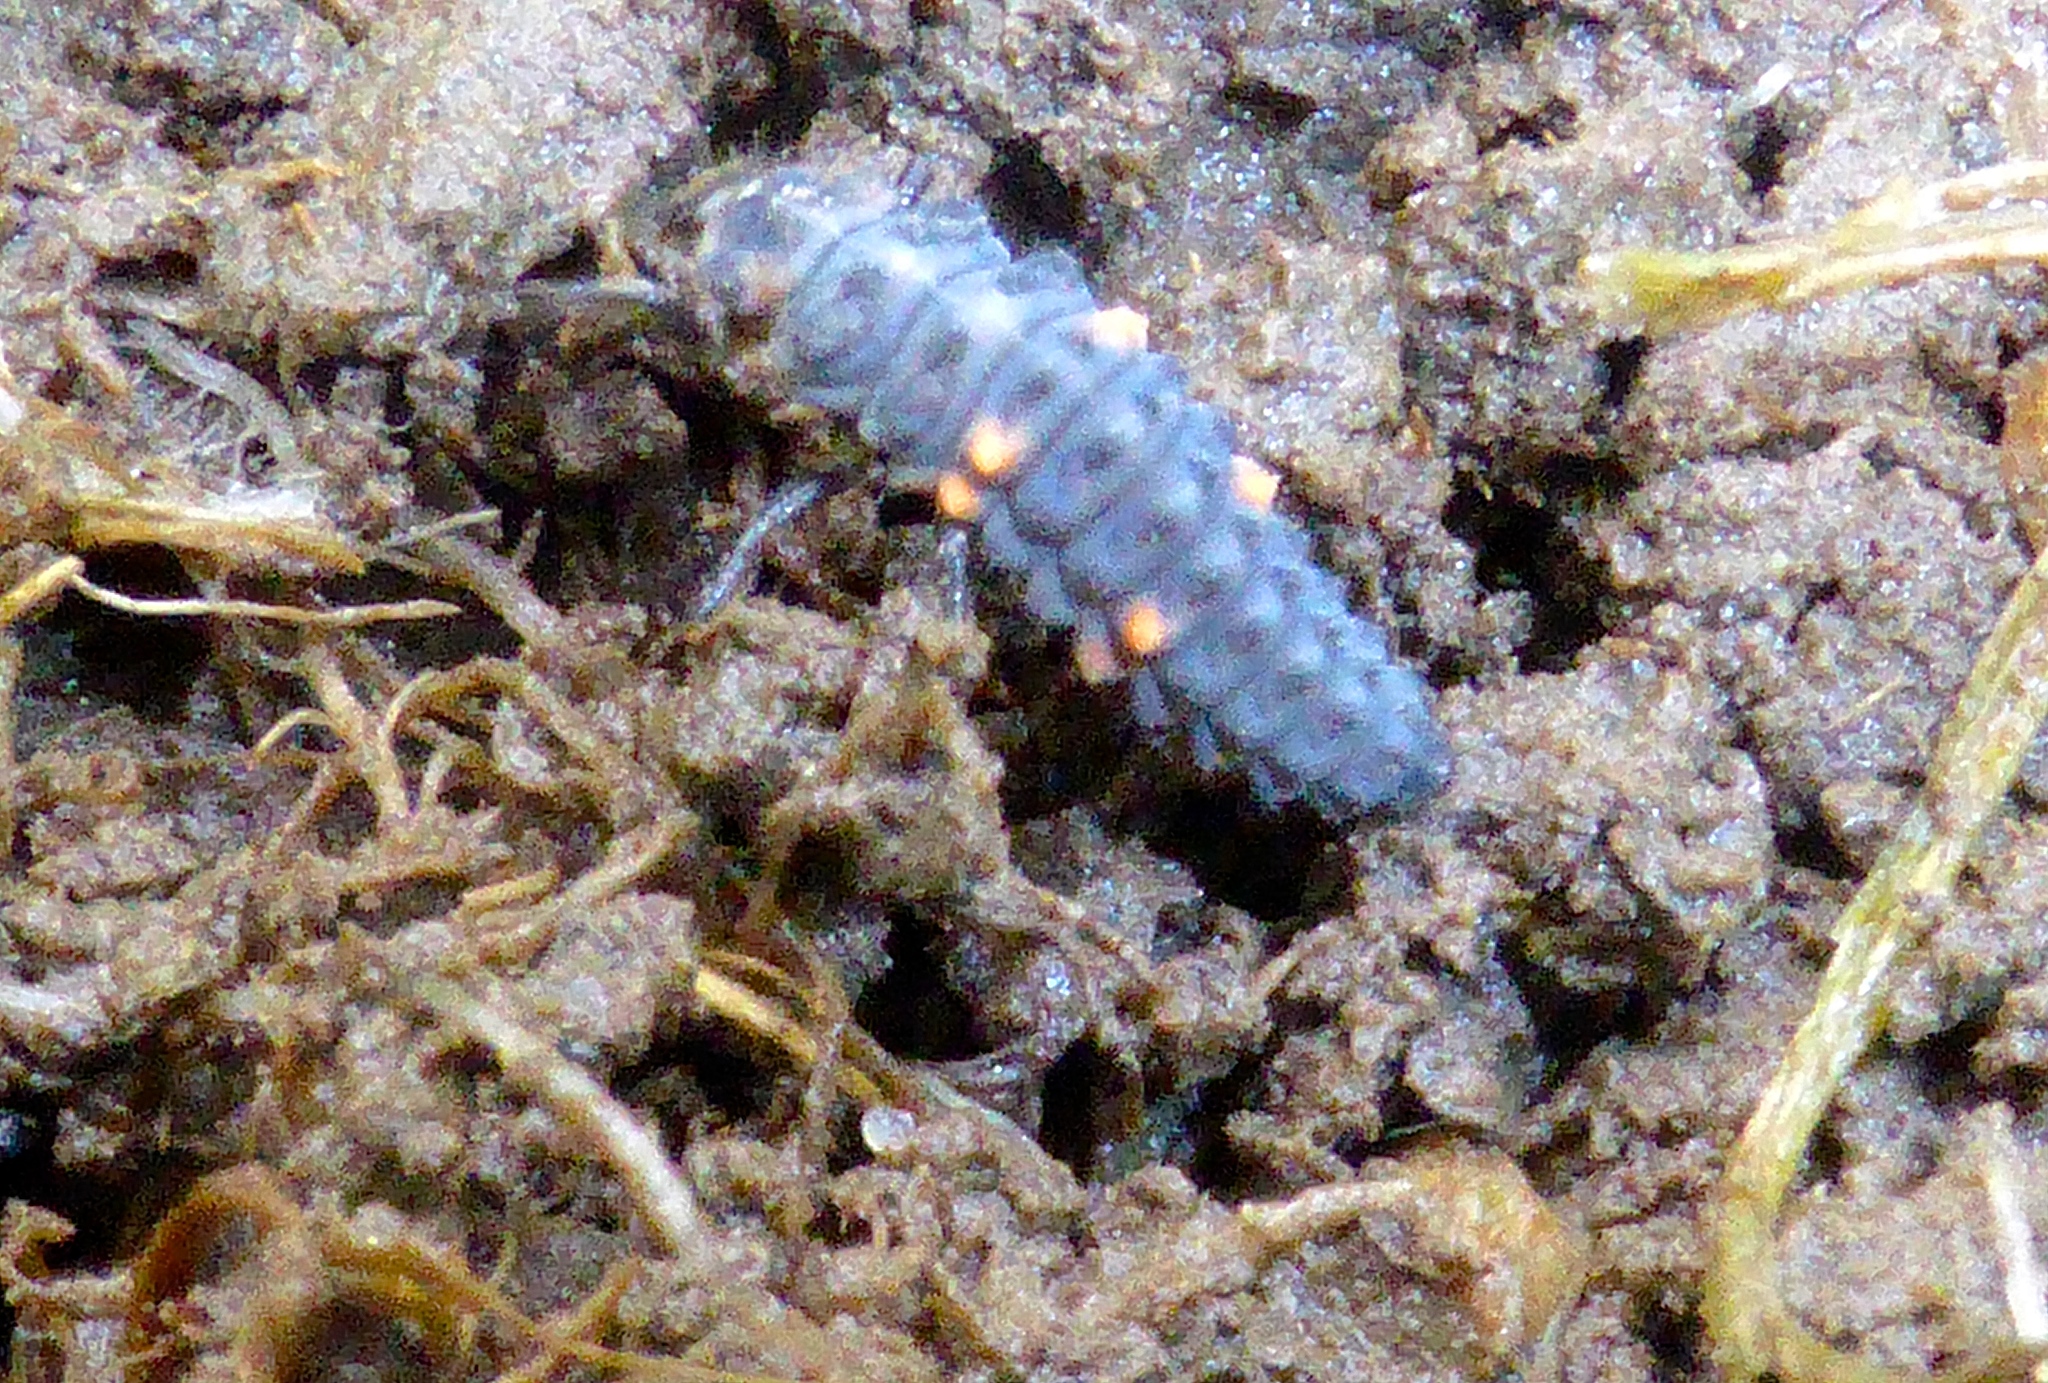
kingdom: Animalia
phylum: Arthropoda
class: Insecta
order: Coleoptera
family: Coccinellidae
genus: Coccinella
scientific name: Coccinella undecimpunctata
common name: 11-spot ladybird
